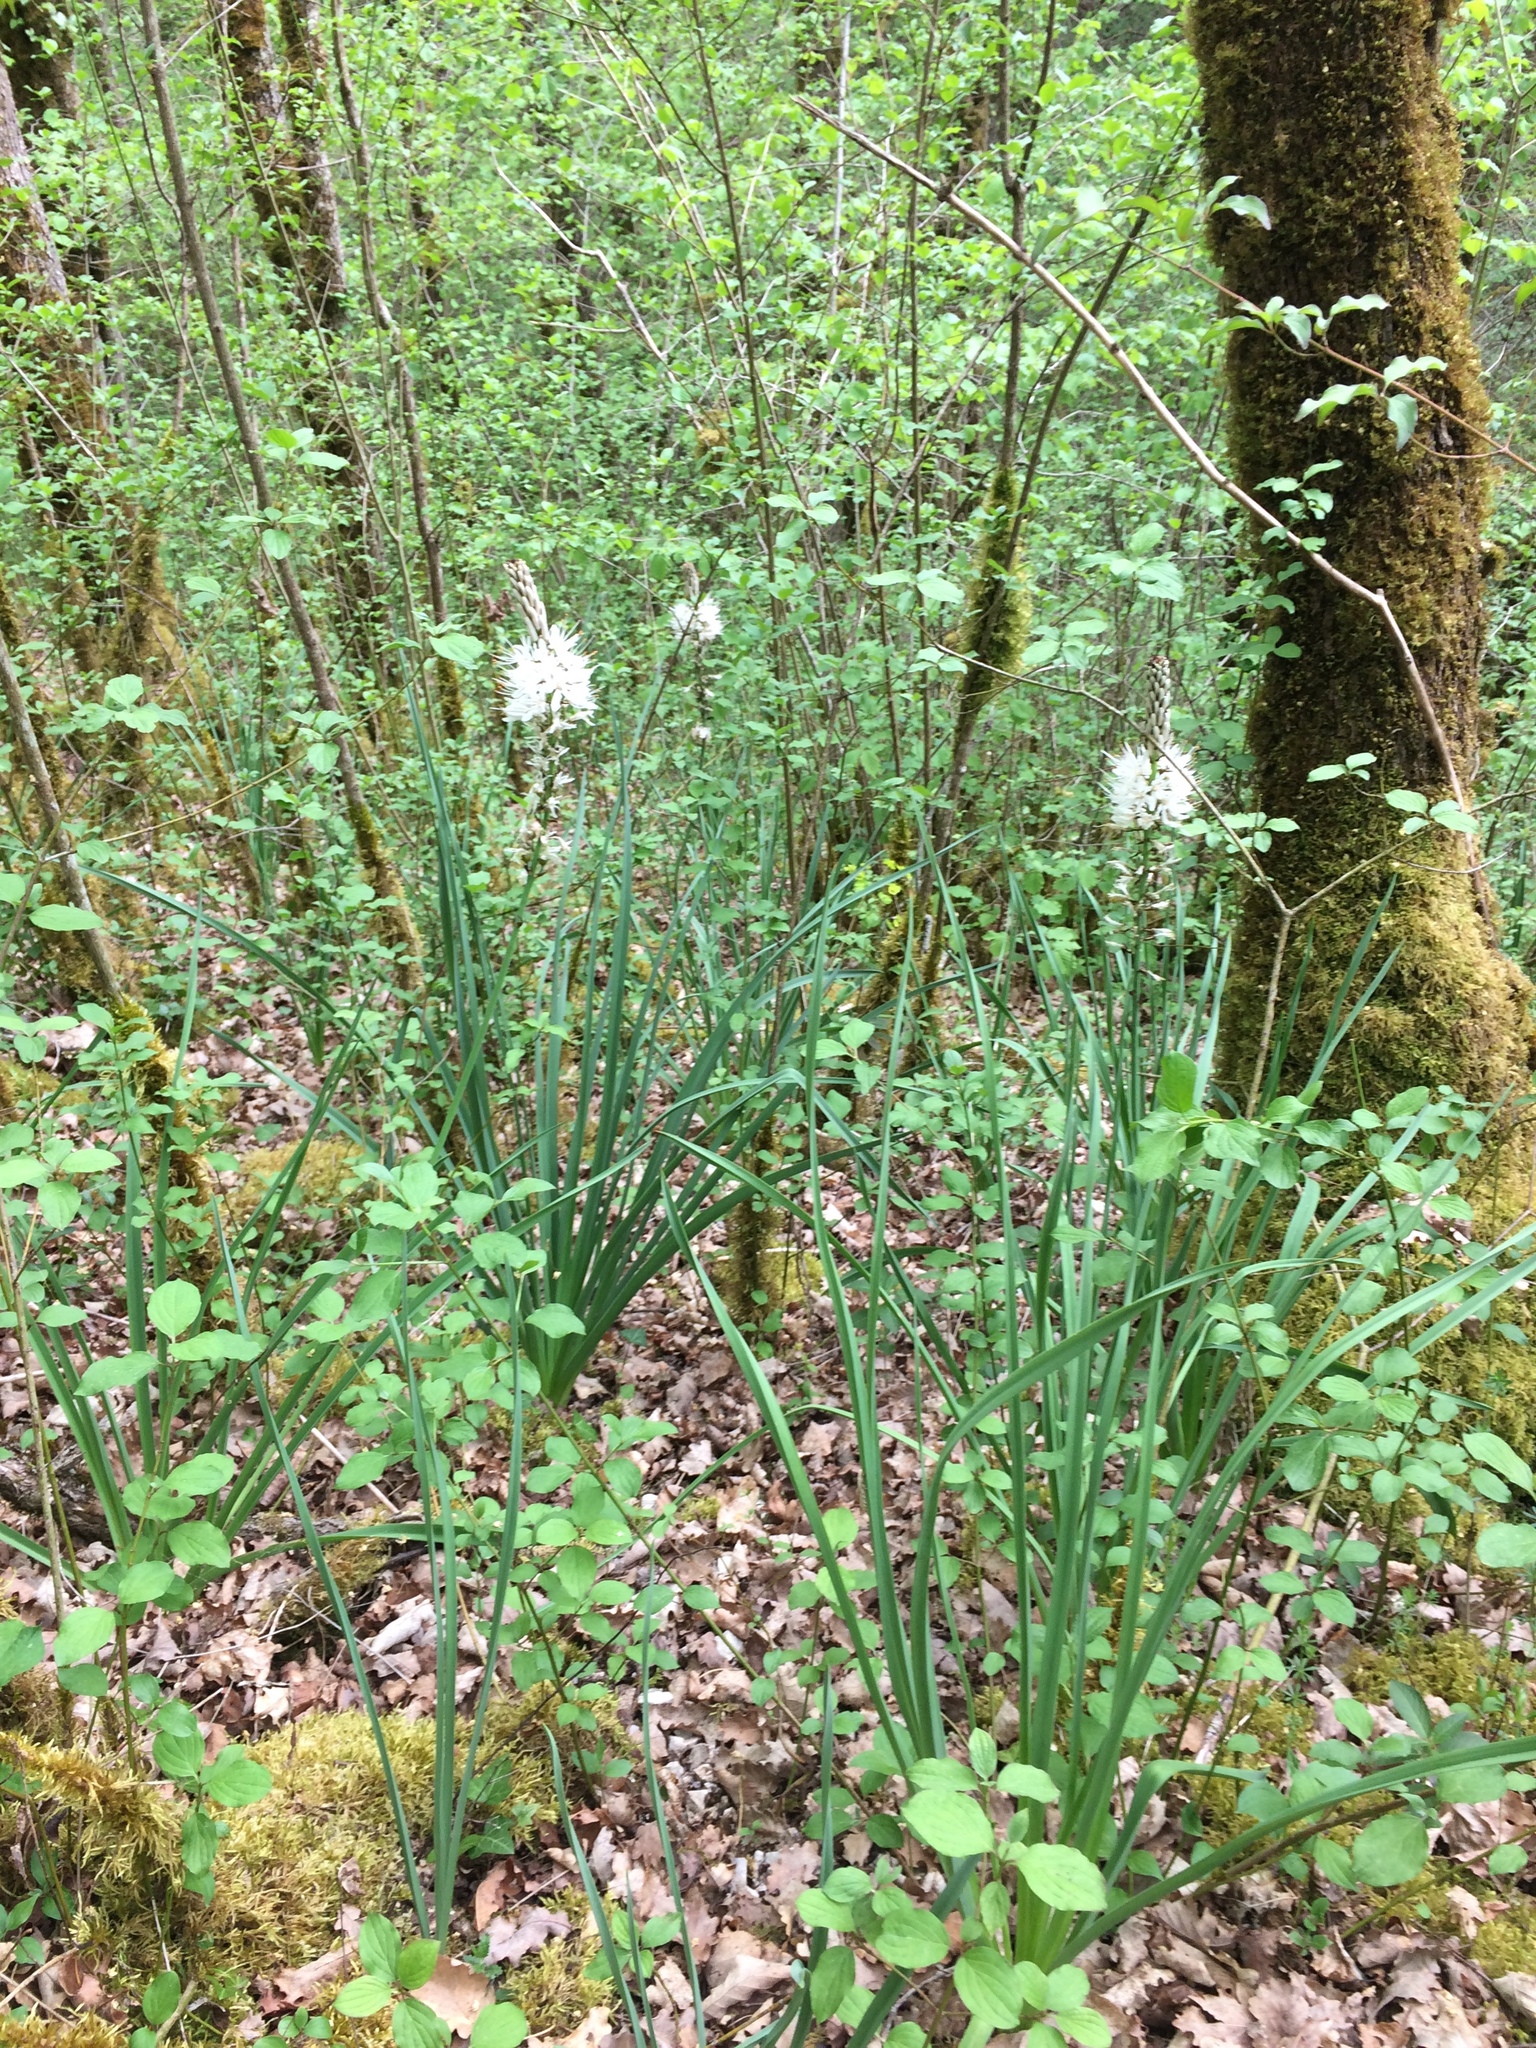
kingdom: Plantae
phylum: Tracheophyta
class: Liliopsida
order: Asparagales
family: Asphodelaceae
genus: Asphodelus
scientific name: Asphodelus albus
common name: White asphodel
